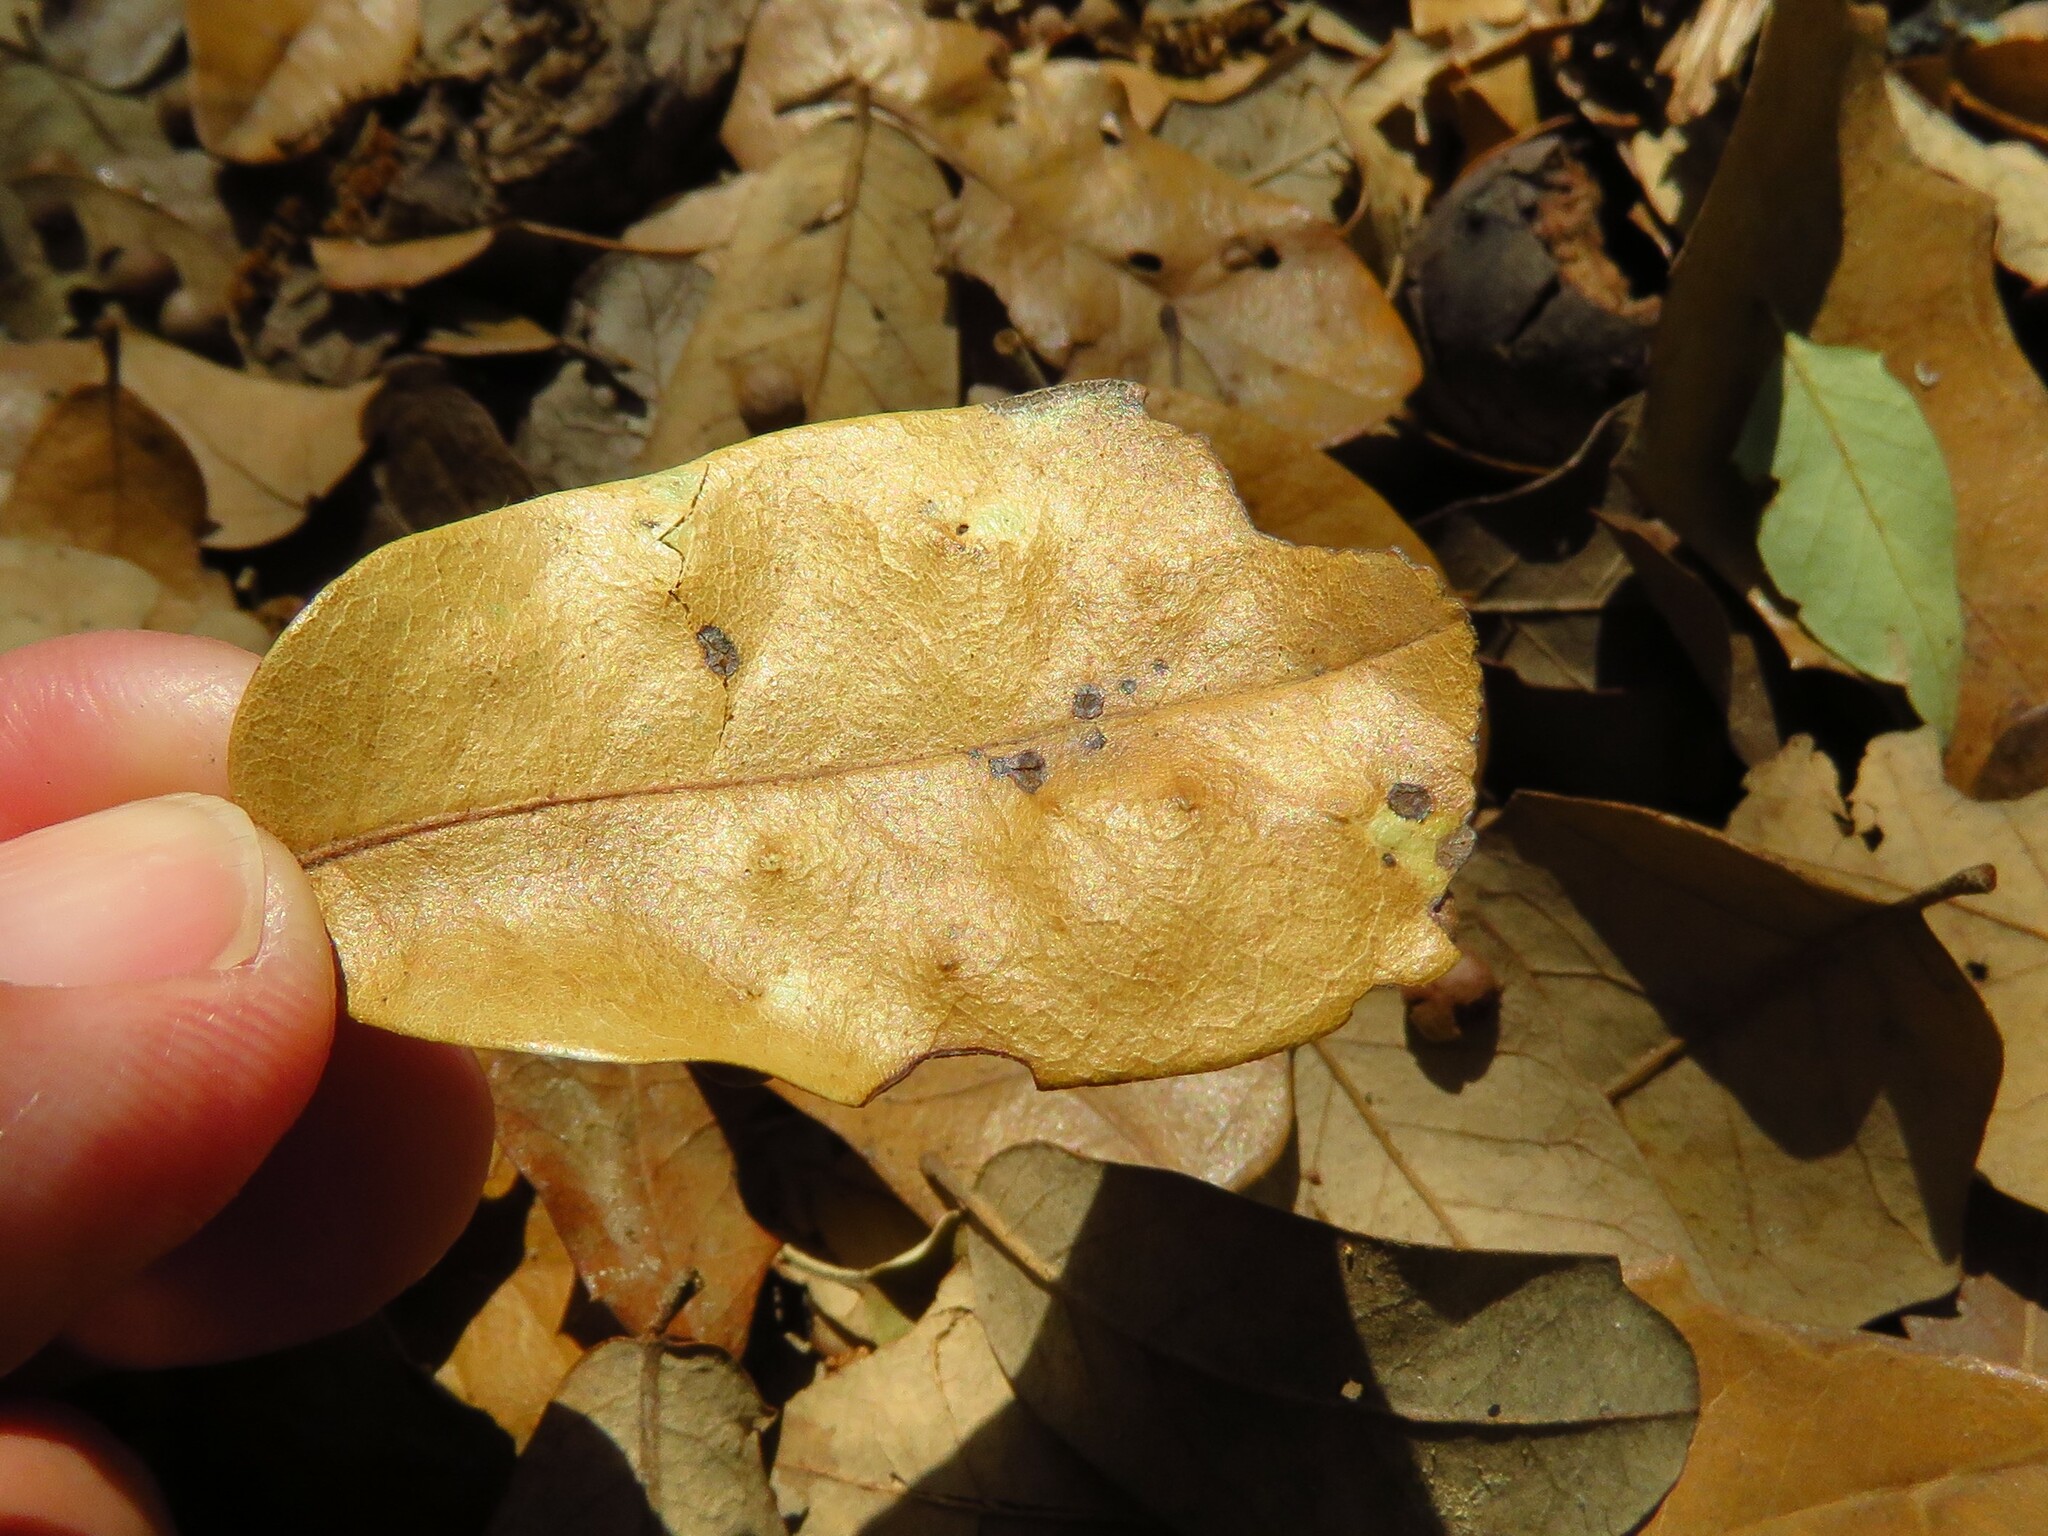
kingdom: Animalia
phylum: Arthropoda
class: Insecta
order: Hymenoptera
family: Cynipidae
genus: Belonocnema
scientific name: Belonocnema kinseyi
